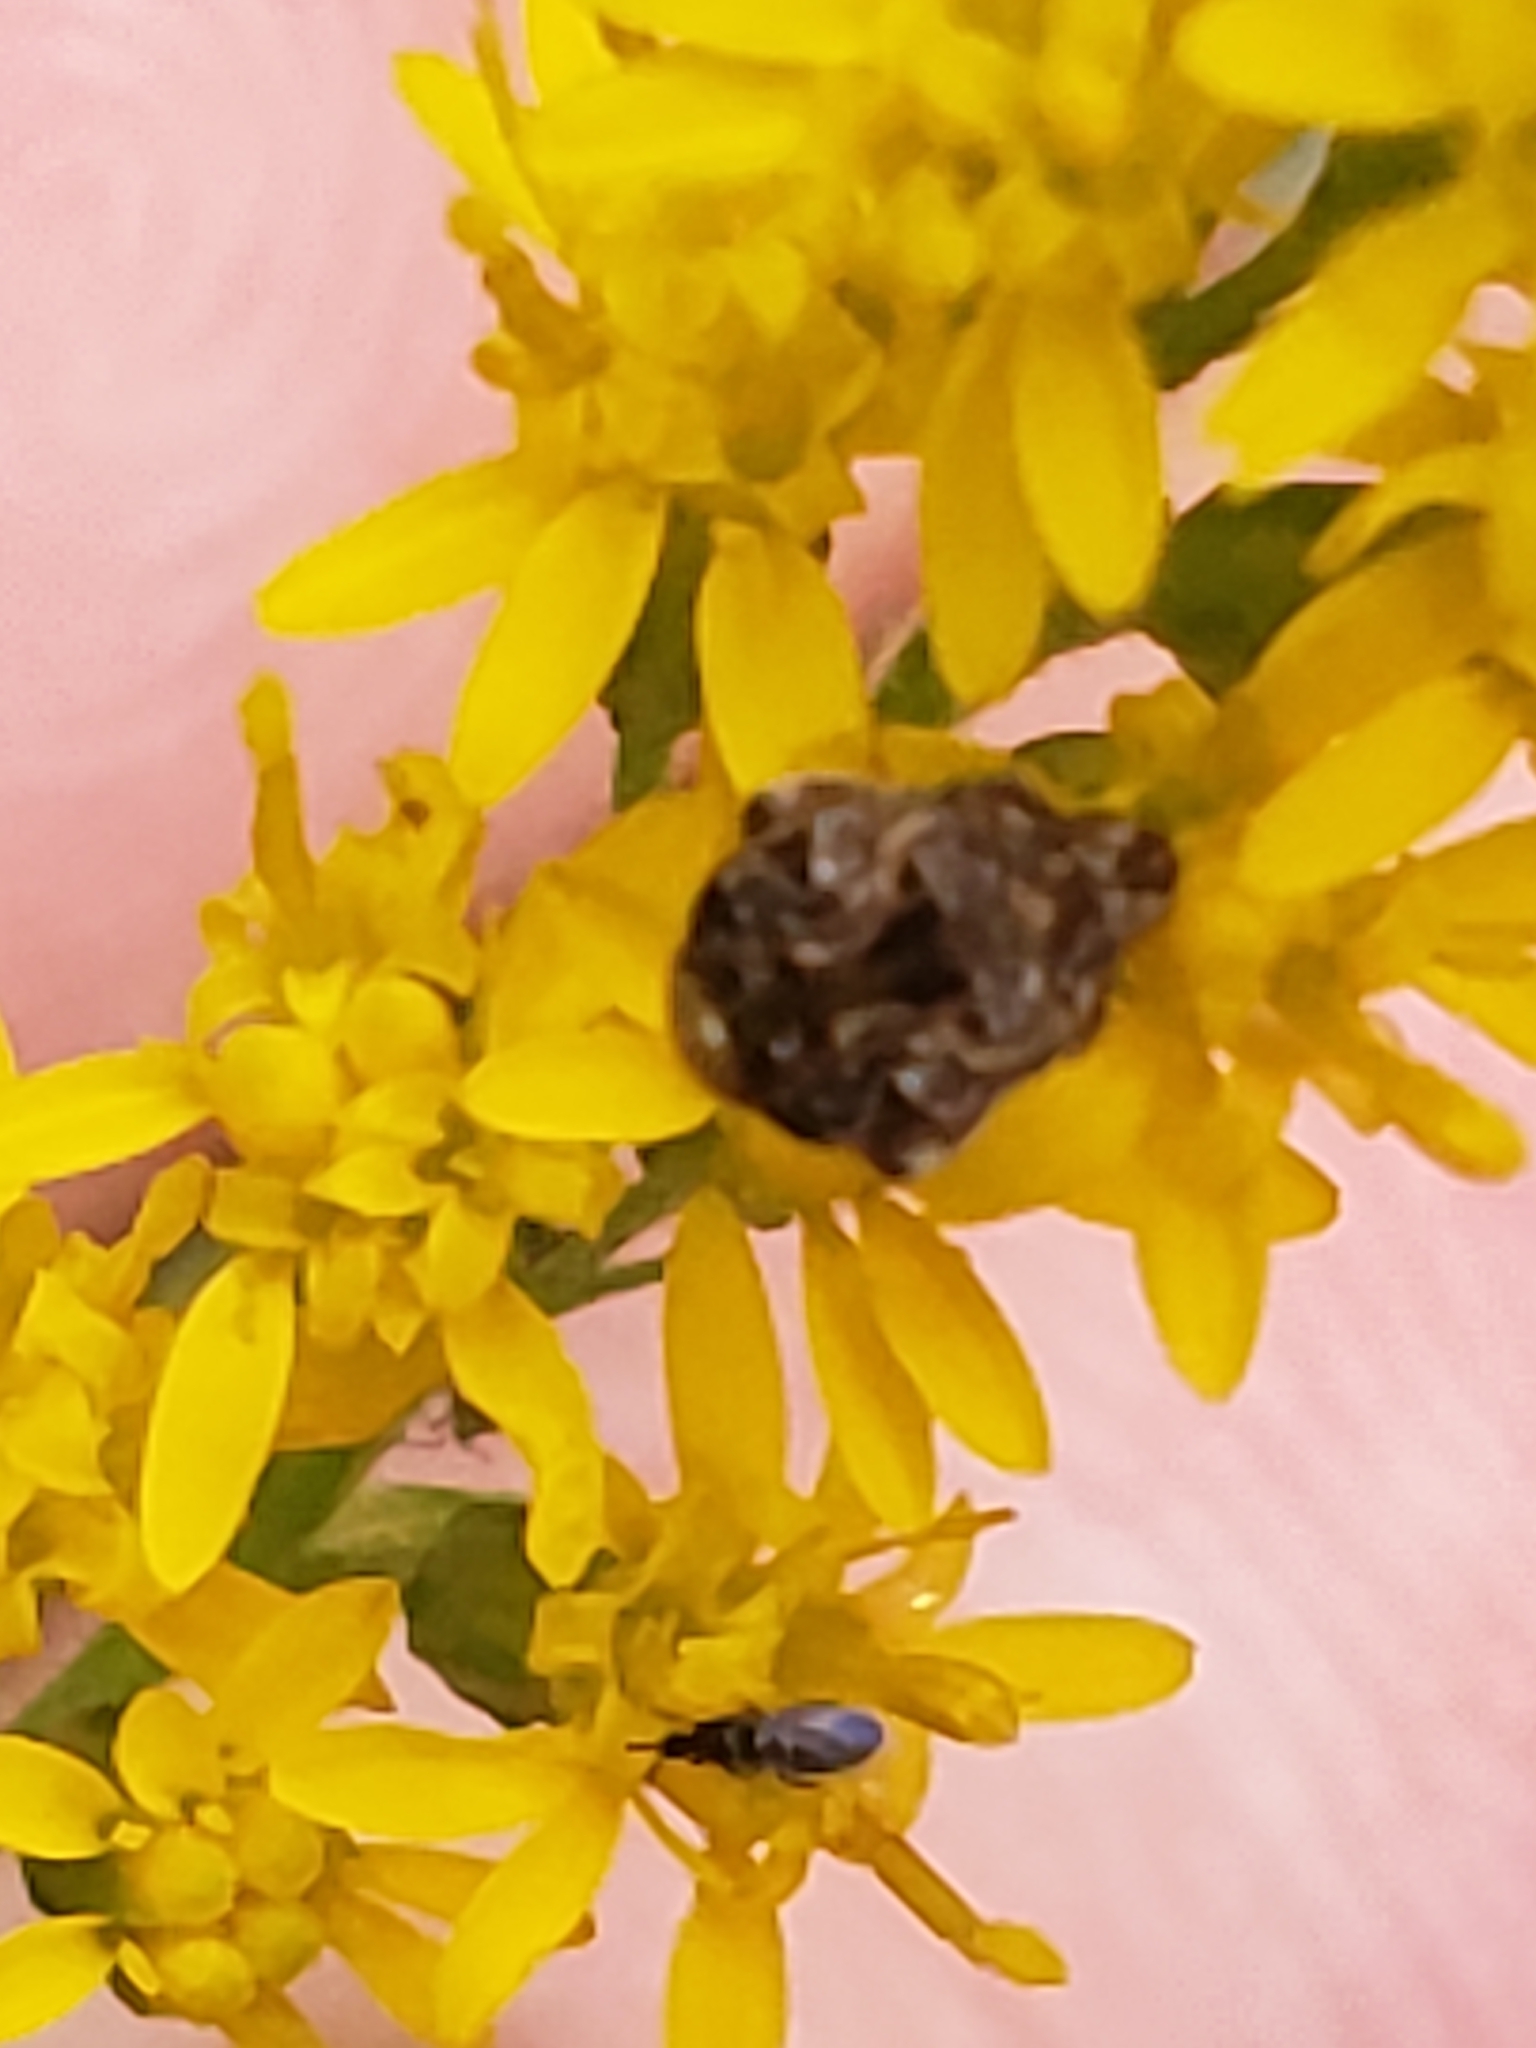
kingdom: Animalia
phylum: Arthropoda
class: Insecta
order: Coleoptera
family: Chrysomelidae
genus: Gibbobruchus
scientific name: Gibbobruchus mimus
